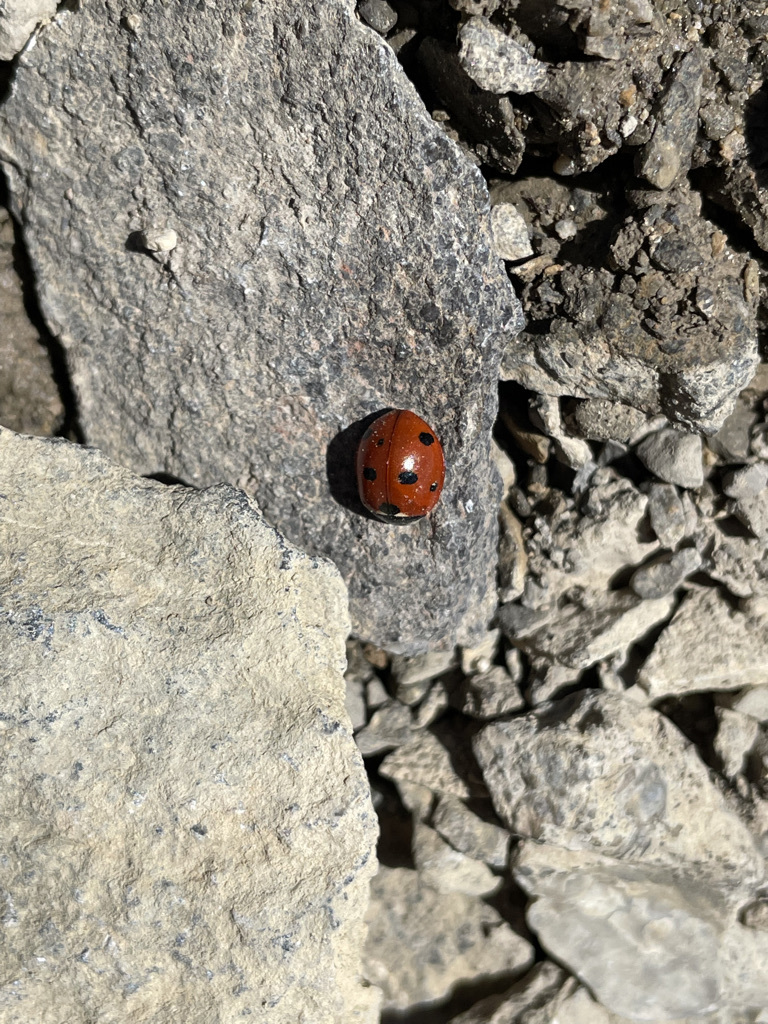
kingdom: Animalia
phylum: Arthropoda
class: Insecta
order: Coleoptera
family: Coccinellidae
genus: Coccinella
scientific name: Coccinella septempunctata
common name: Sevenspotted lady beetle
